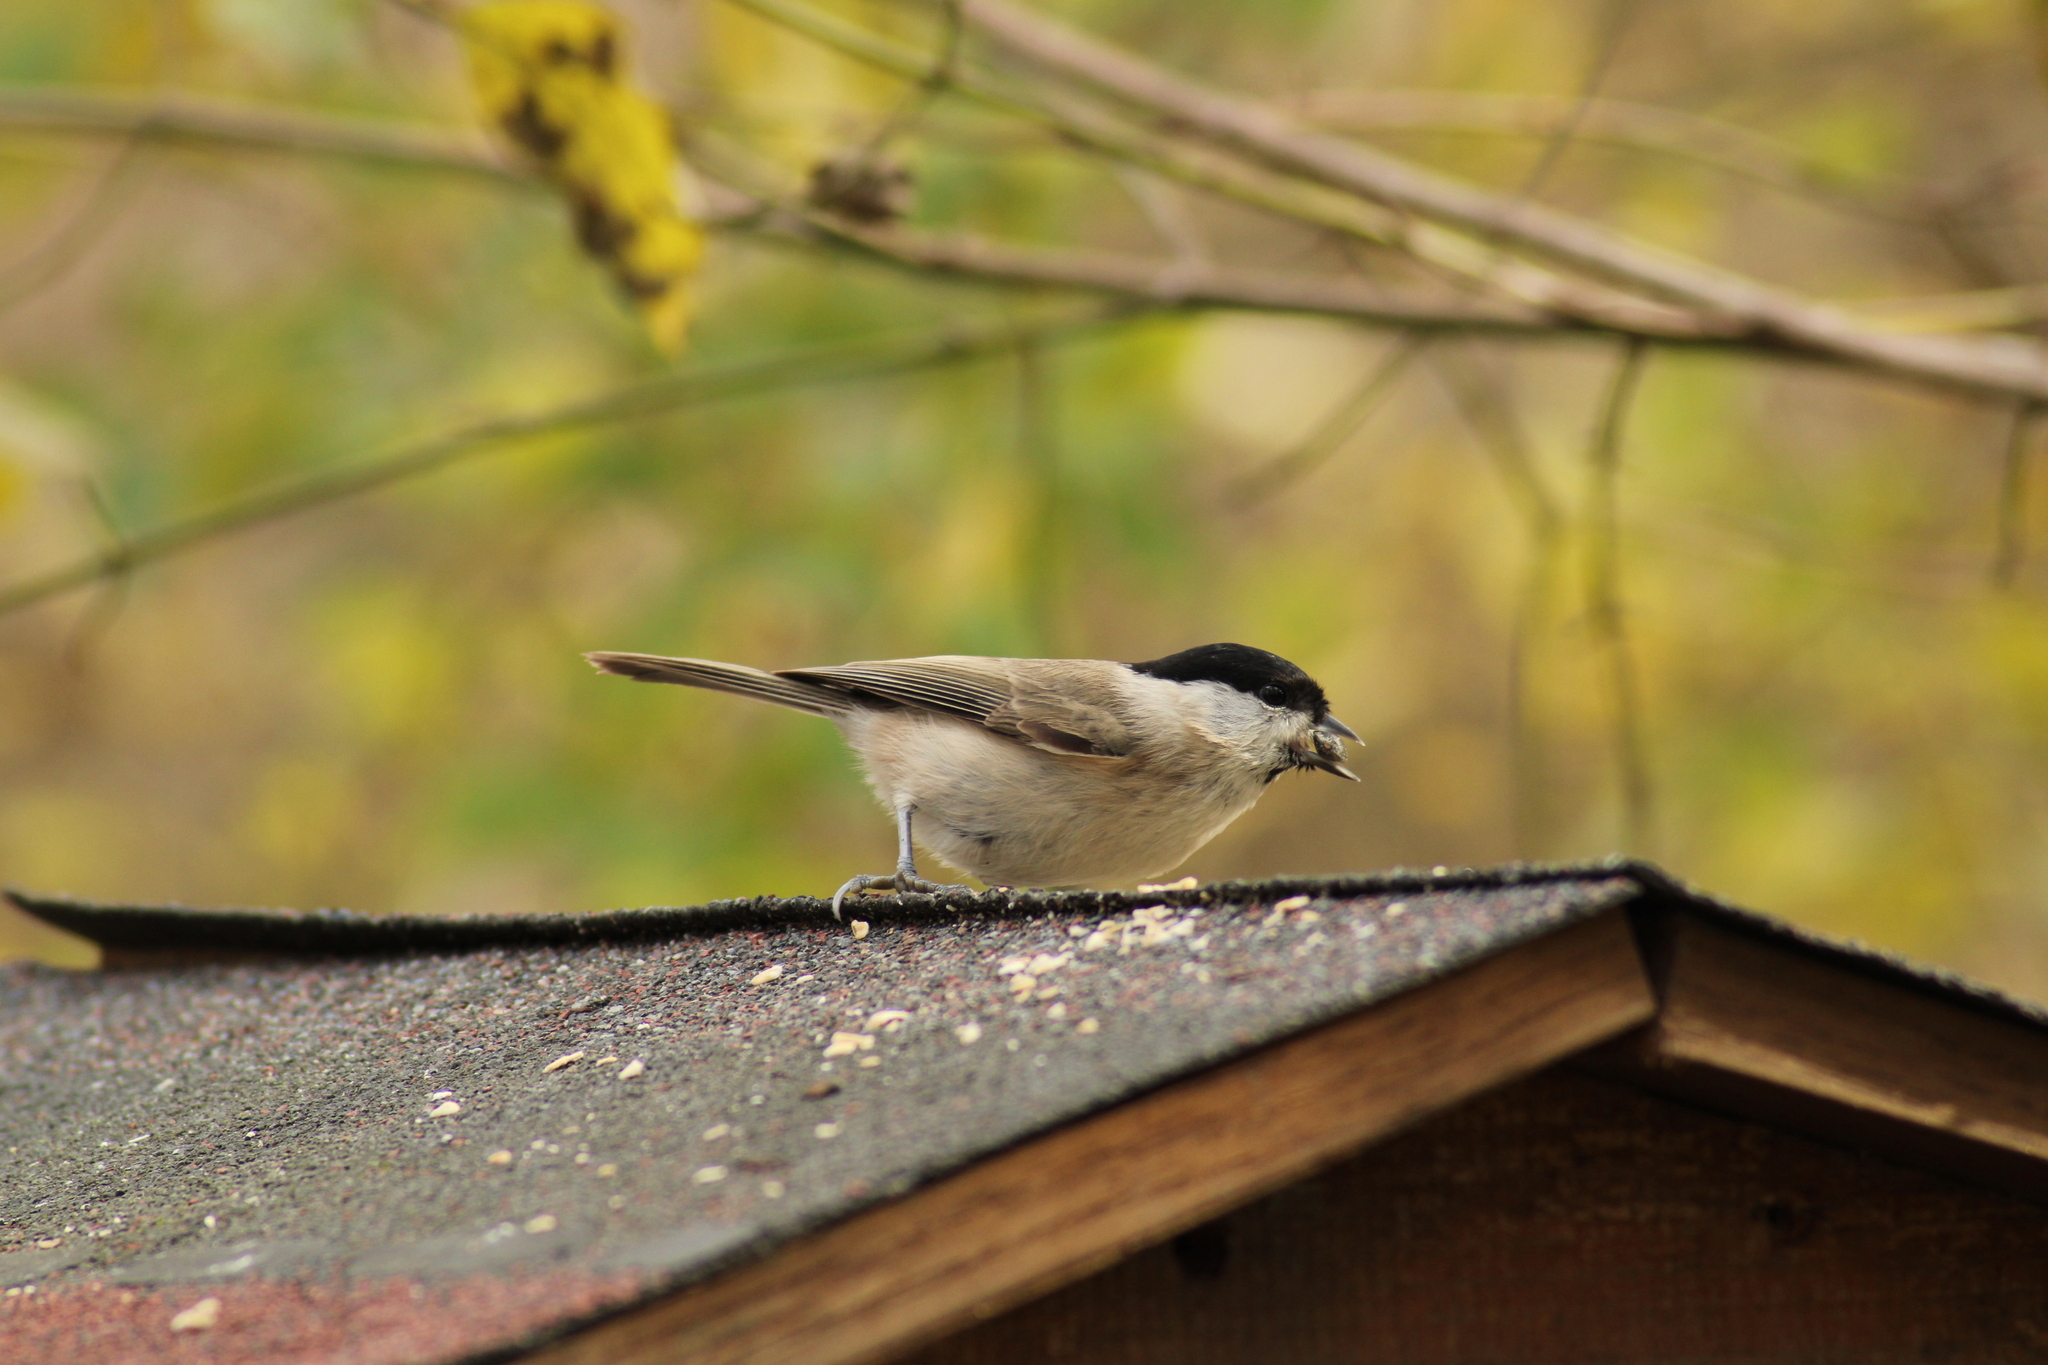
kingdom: Animalia
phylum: Chordata
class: Aves
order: Passeriformes
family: Paridae
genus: Poecile
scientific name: Poecile palustris
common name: Marsh tit
